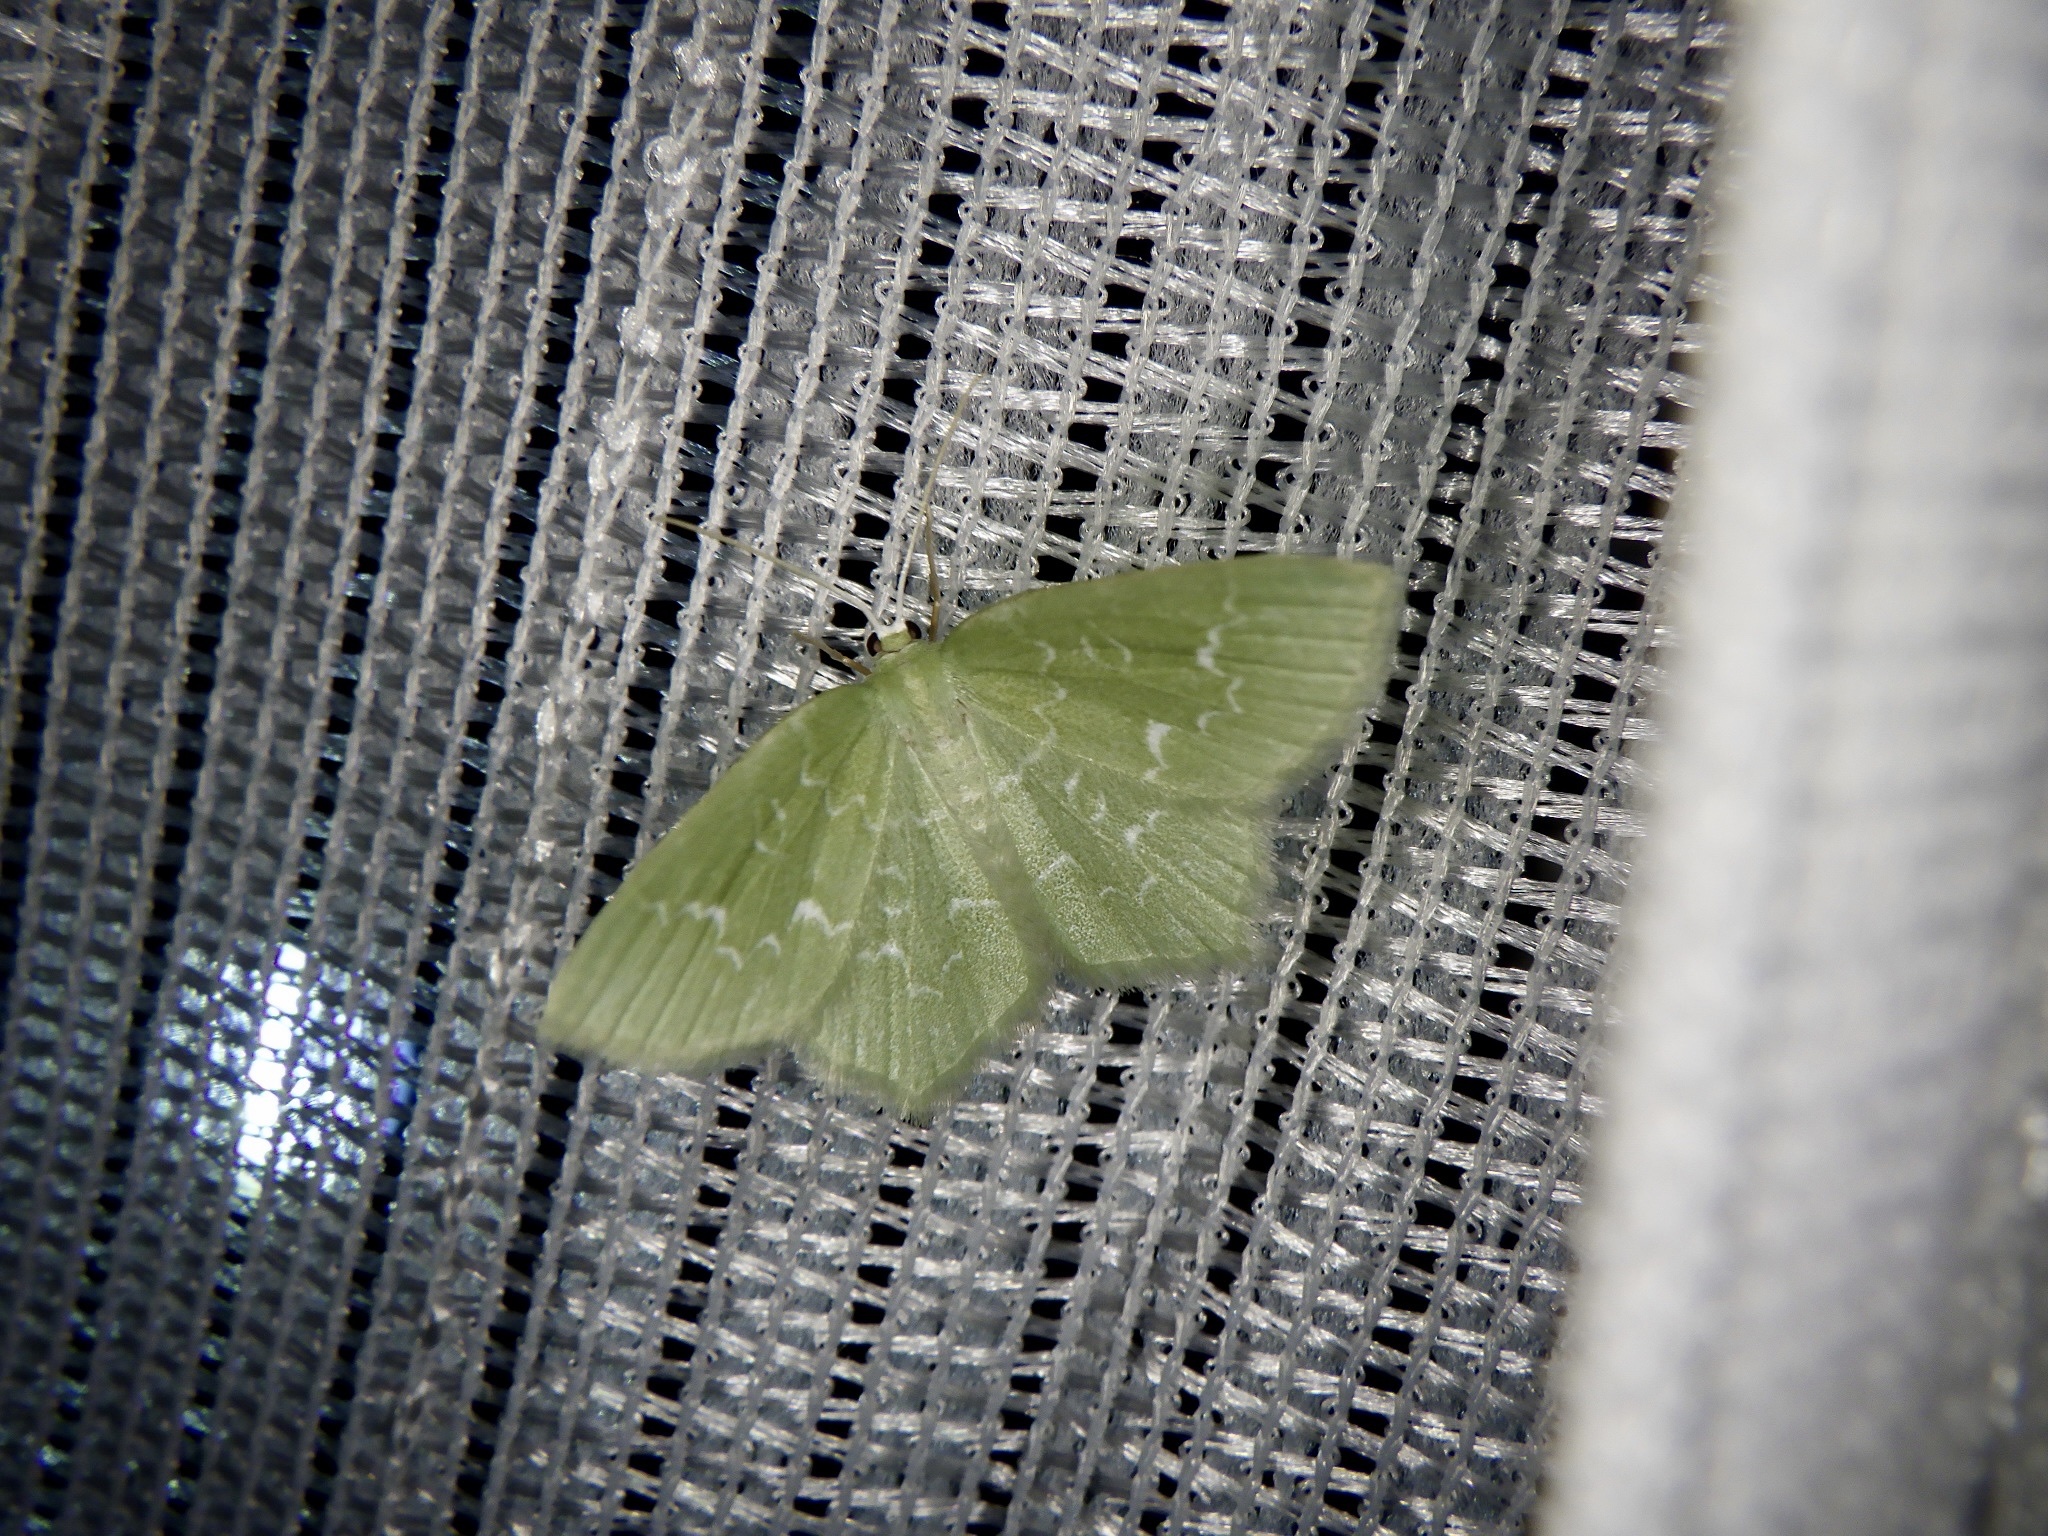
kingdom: Animalia
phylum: Arthropoda
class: Insecta
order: Lepidoptera
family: Geometridae
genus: Jodis
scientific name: Jodis praerupta
